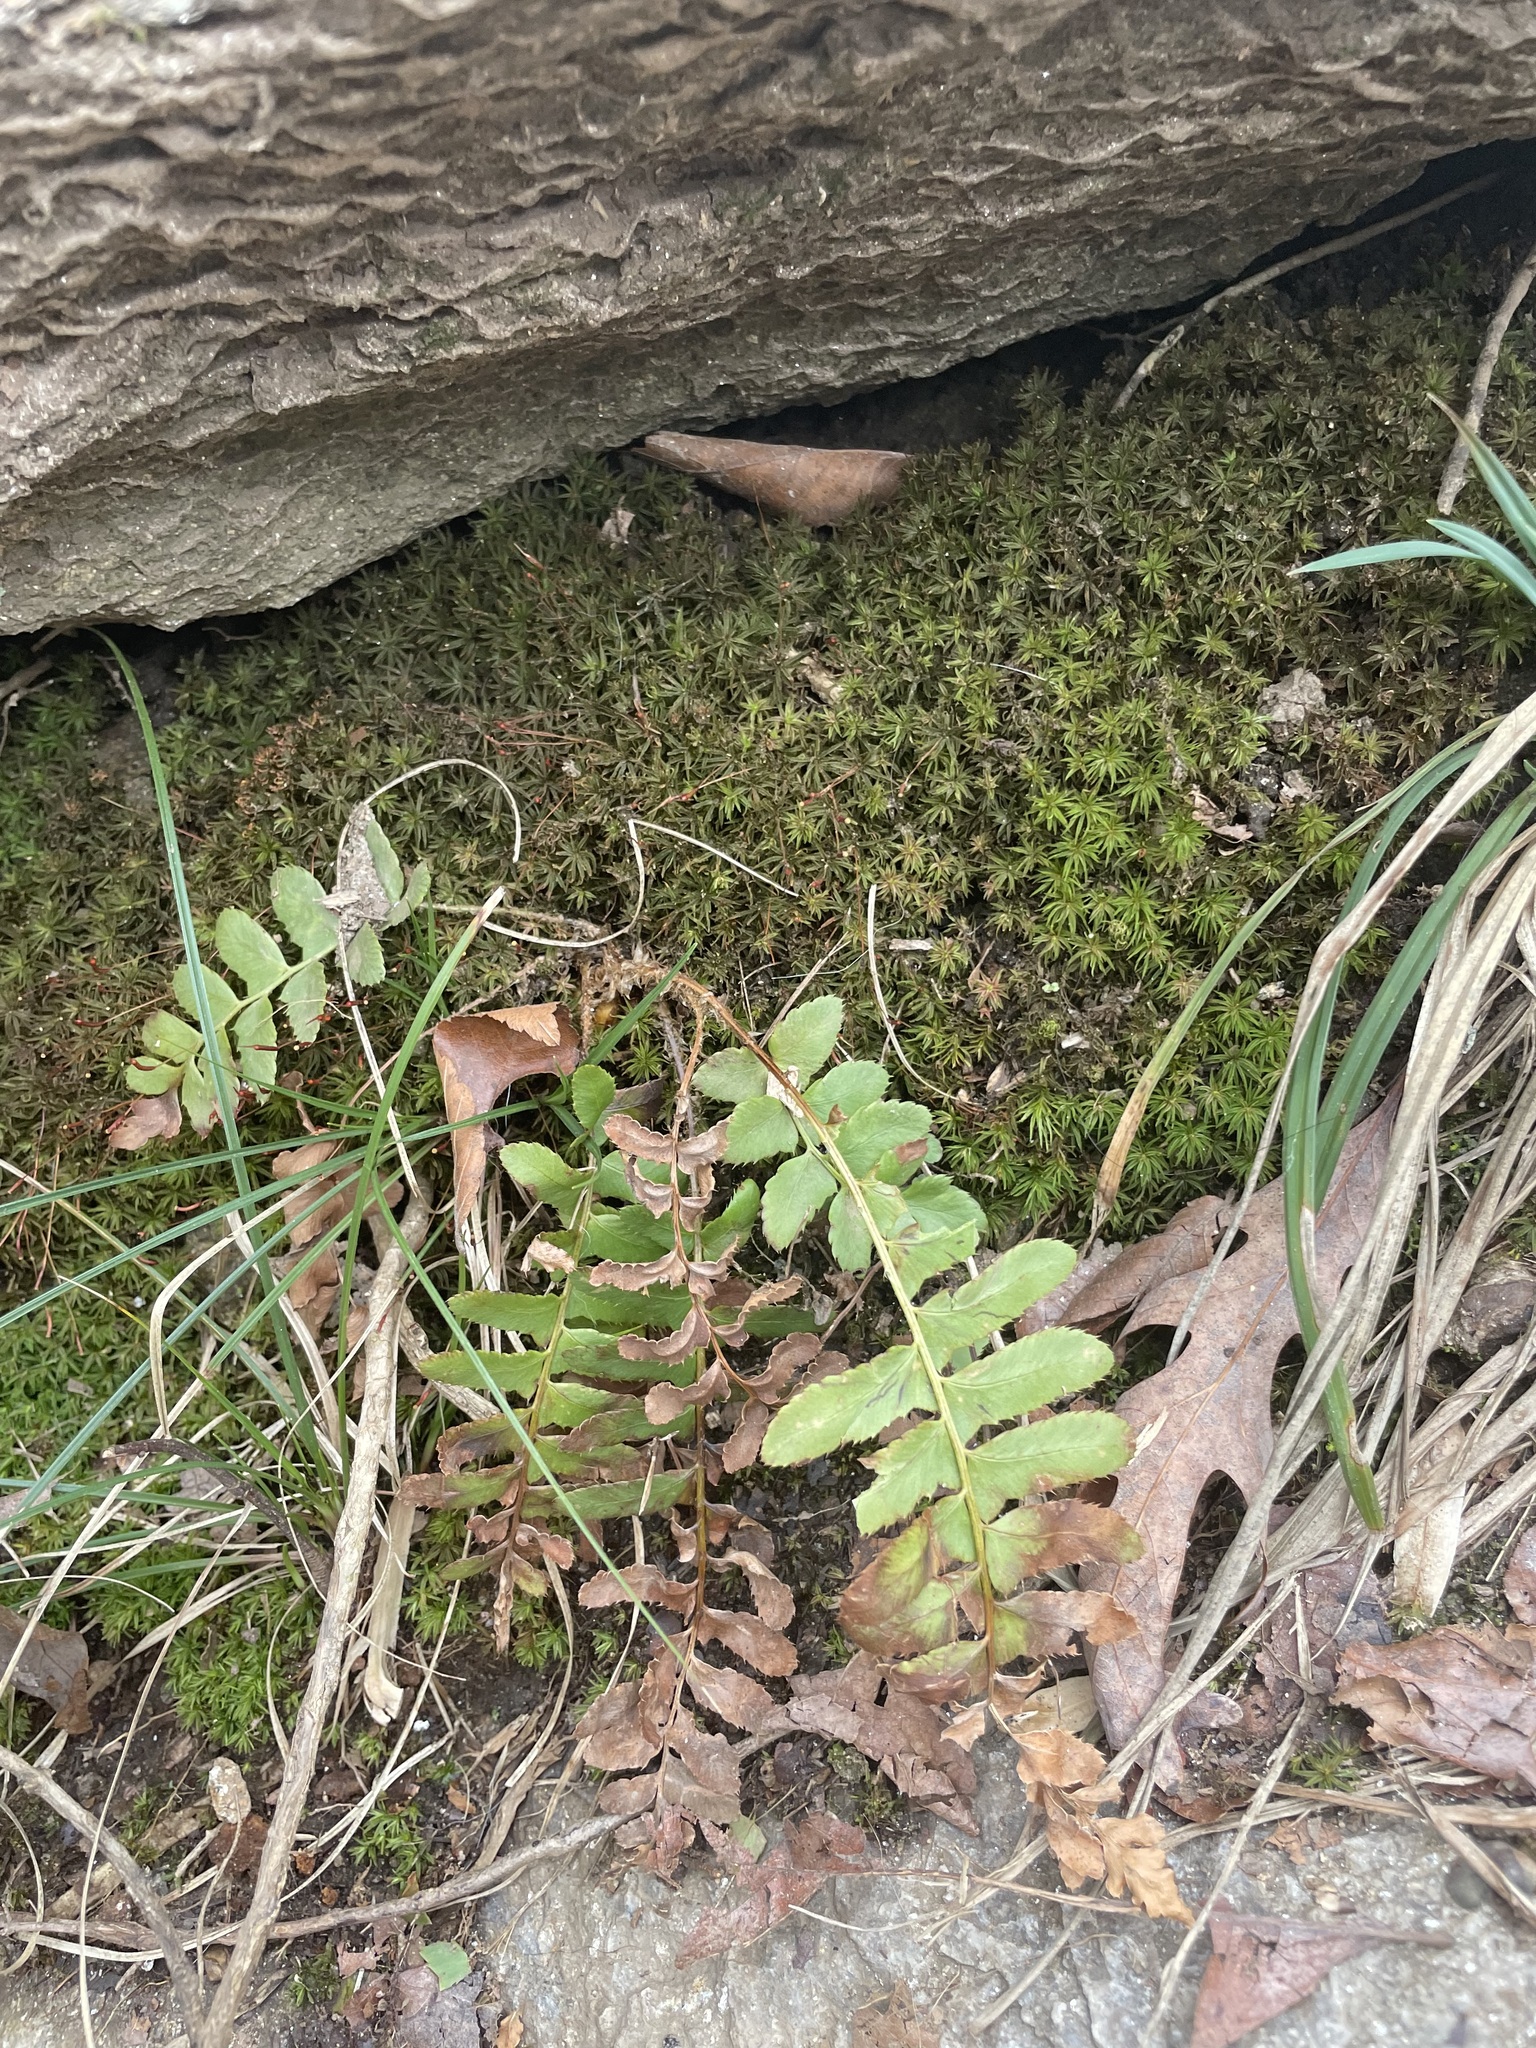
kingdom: Plantae
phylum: Tracheophyta
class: Polypodiopsida
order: Polypodiales
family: Dryopteridaceae
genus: Polystichum
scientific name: Polystichum acrostichoides
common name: Christmas fern
